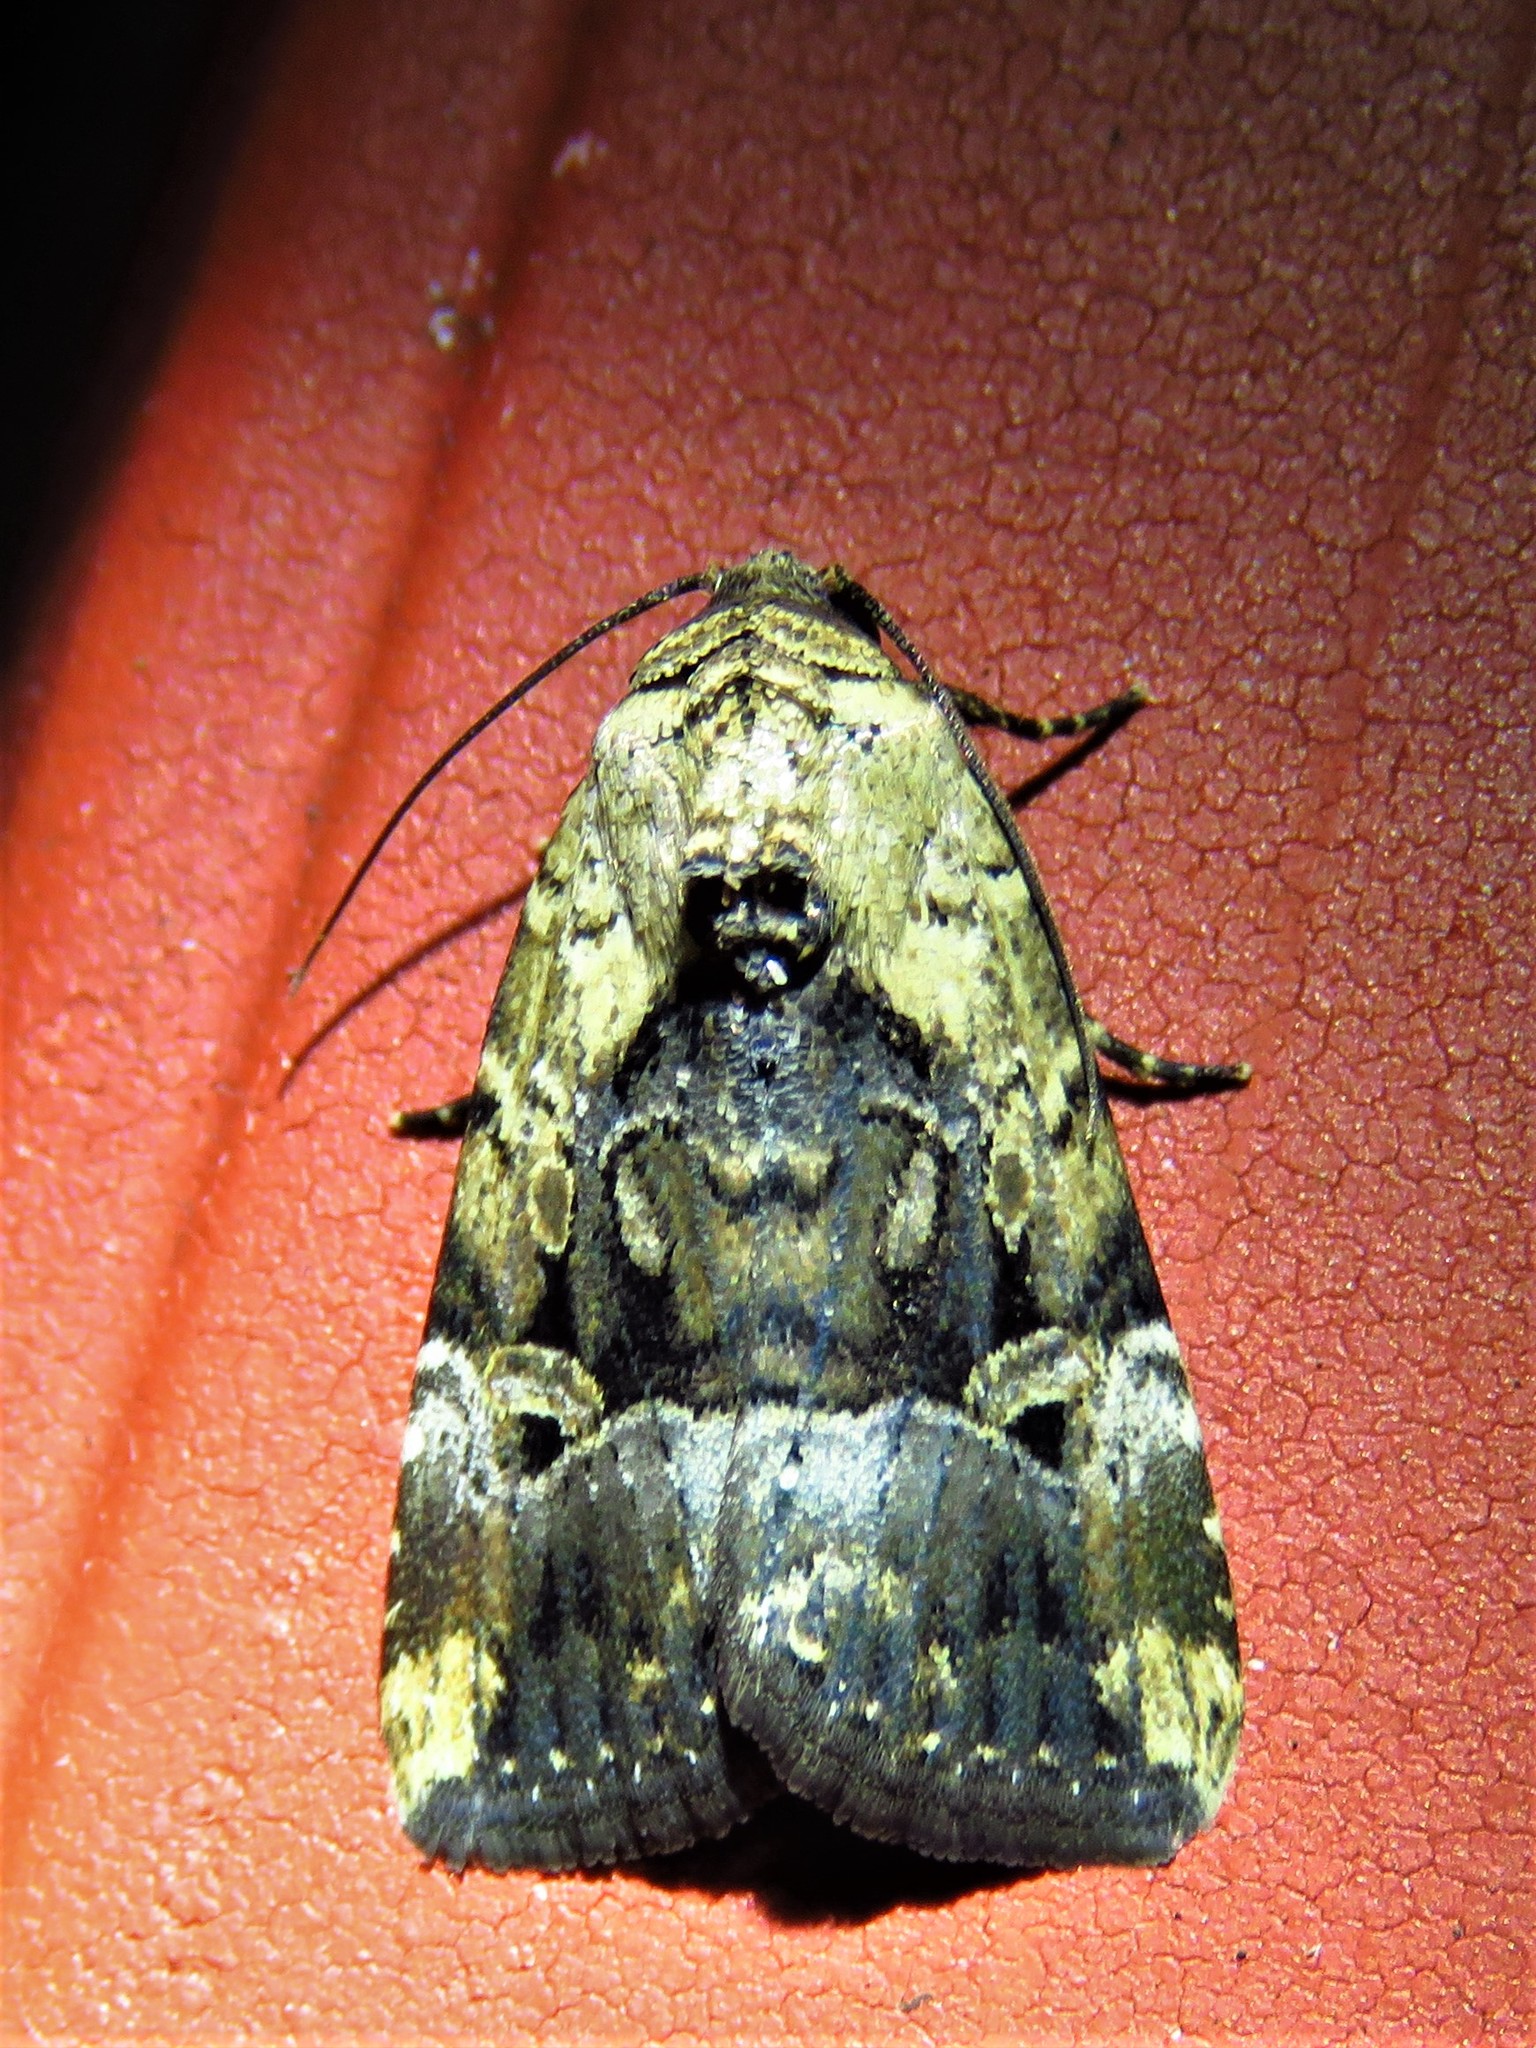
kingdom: Animalia
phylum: Arthropoda
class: Insecta
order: Lepidoptera
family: Noctuidae
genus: Elaphria
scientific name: Elaphria chalcedonia
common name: Chalcedony midget
